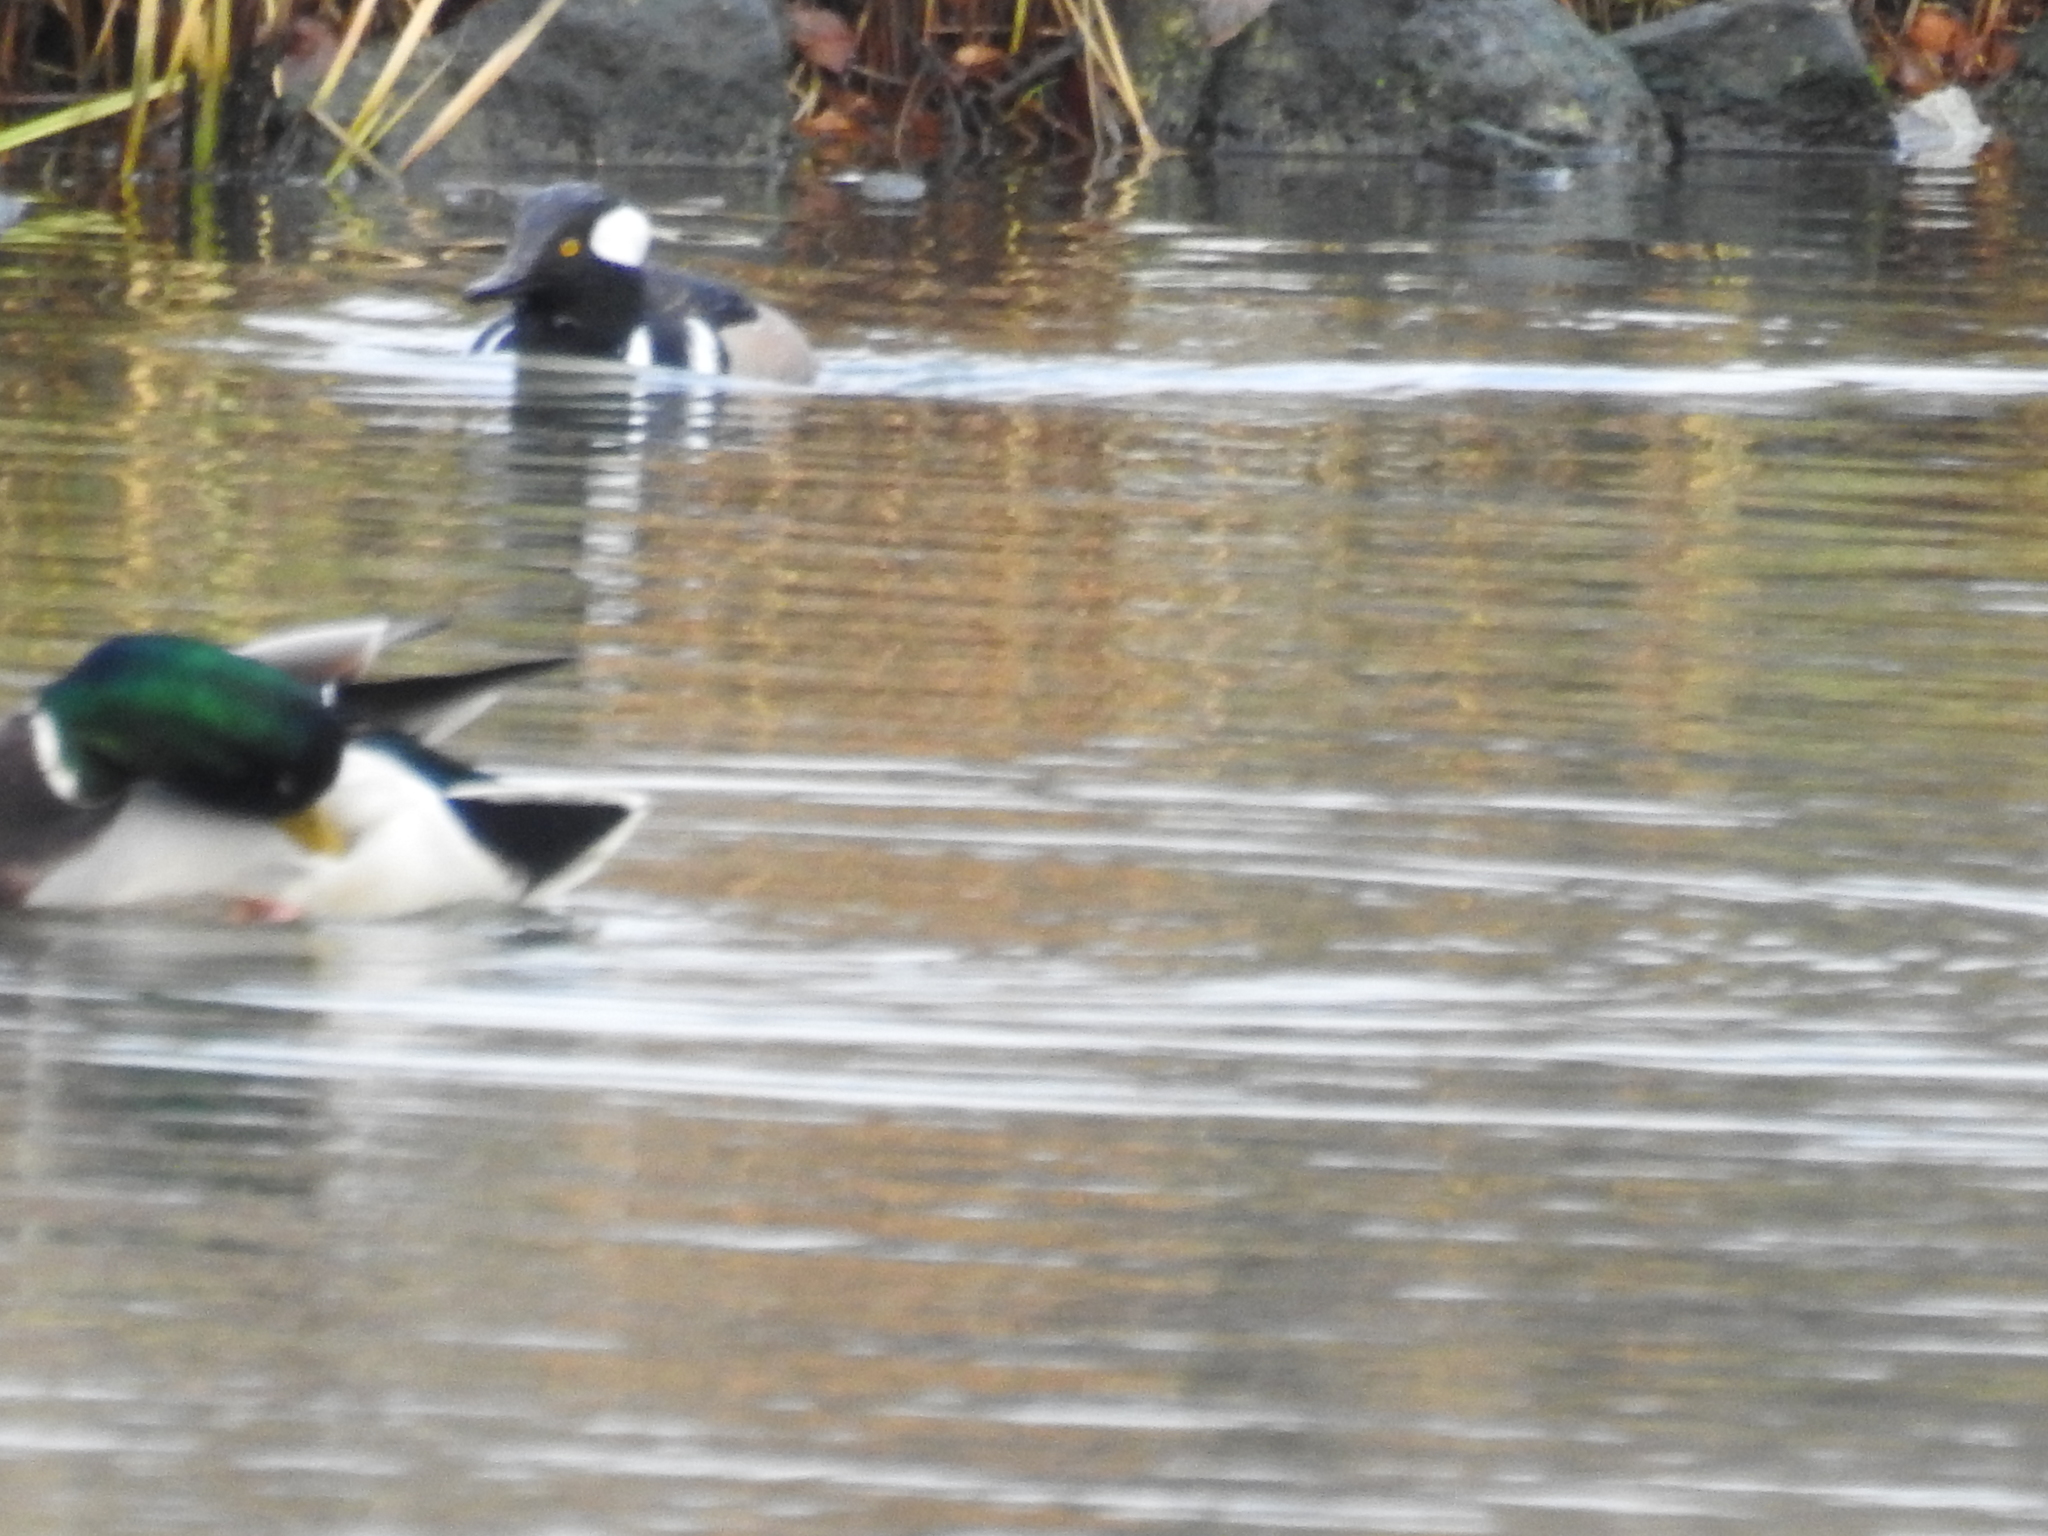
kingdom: Animalia
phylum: Chordata
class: Aves
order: Anseriformes
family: Anatidae
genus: Lophodytes
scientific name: Lophodytes cucullatus
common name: Hooded merganser
